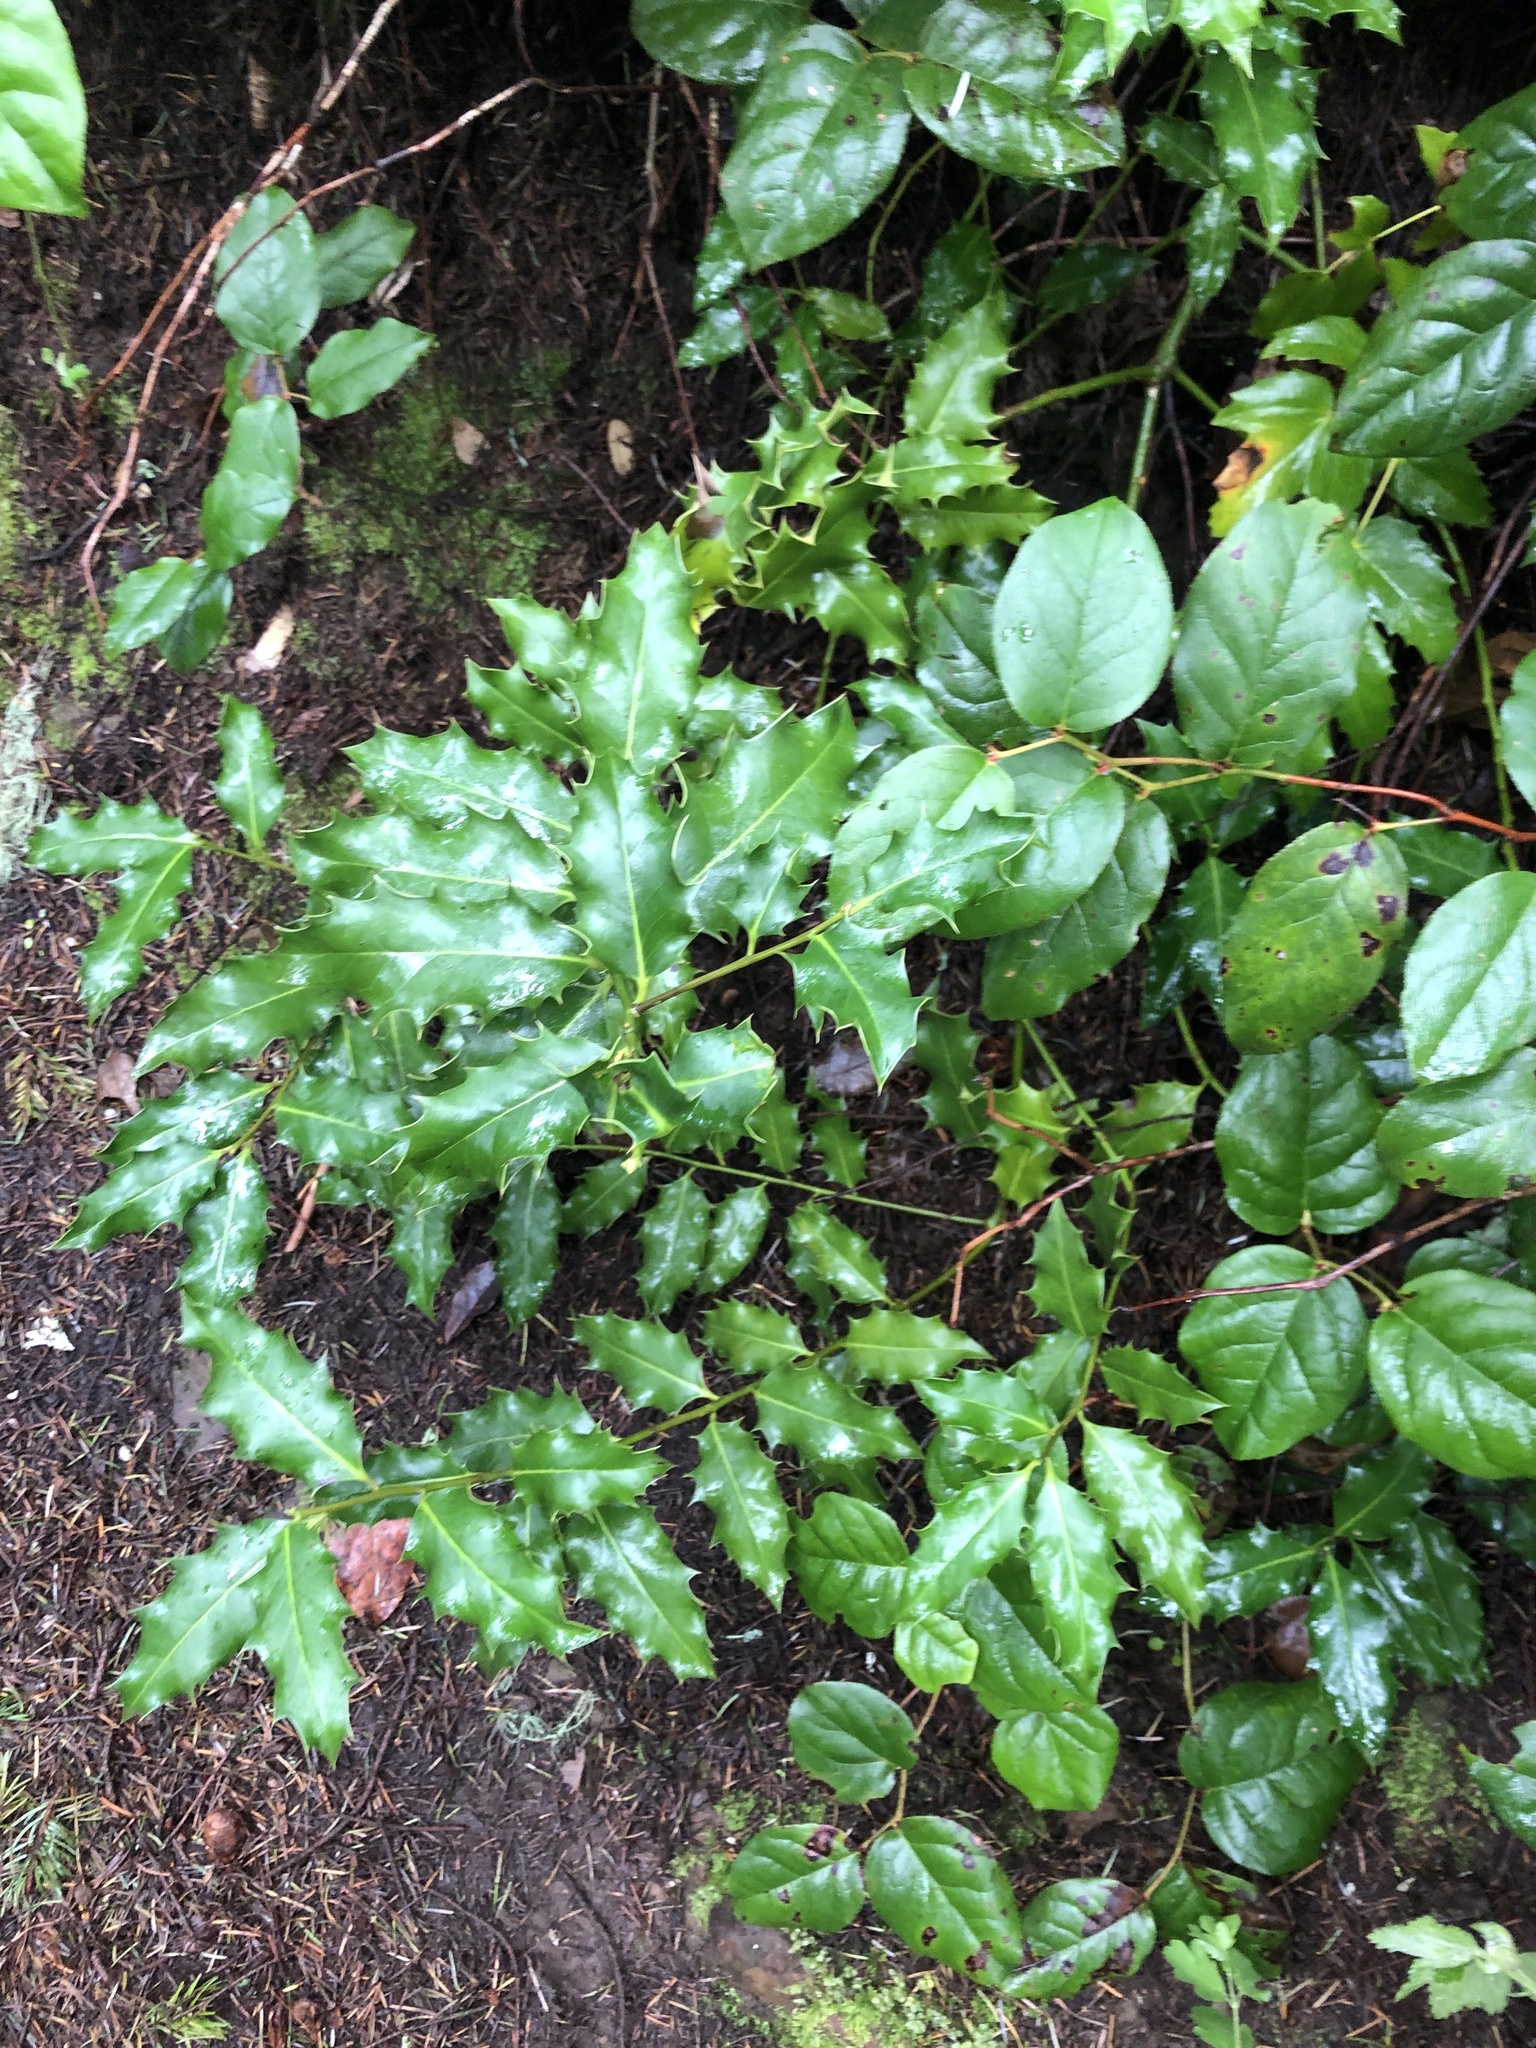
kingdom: Plantae
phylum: Tracheophyta
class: Magnoliopsida
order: Aquifoliales
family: Aquifoliaceae
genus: Ilex
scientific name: Ilex aquifolium
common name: English holly
